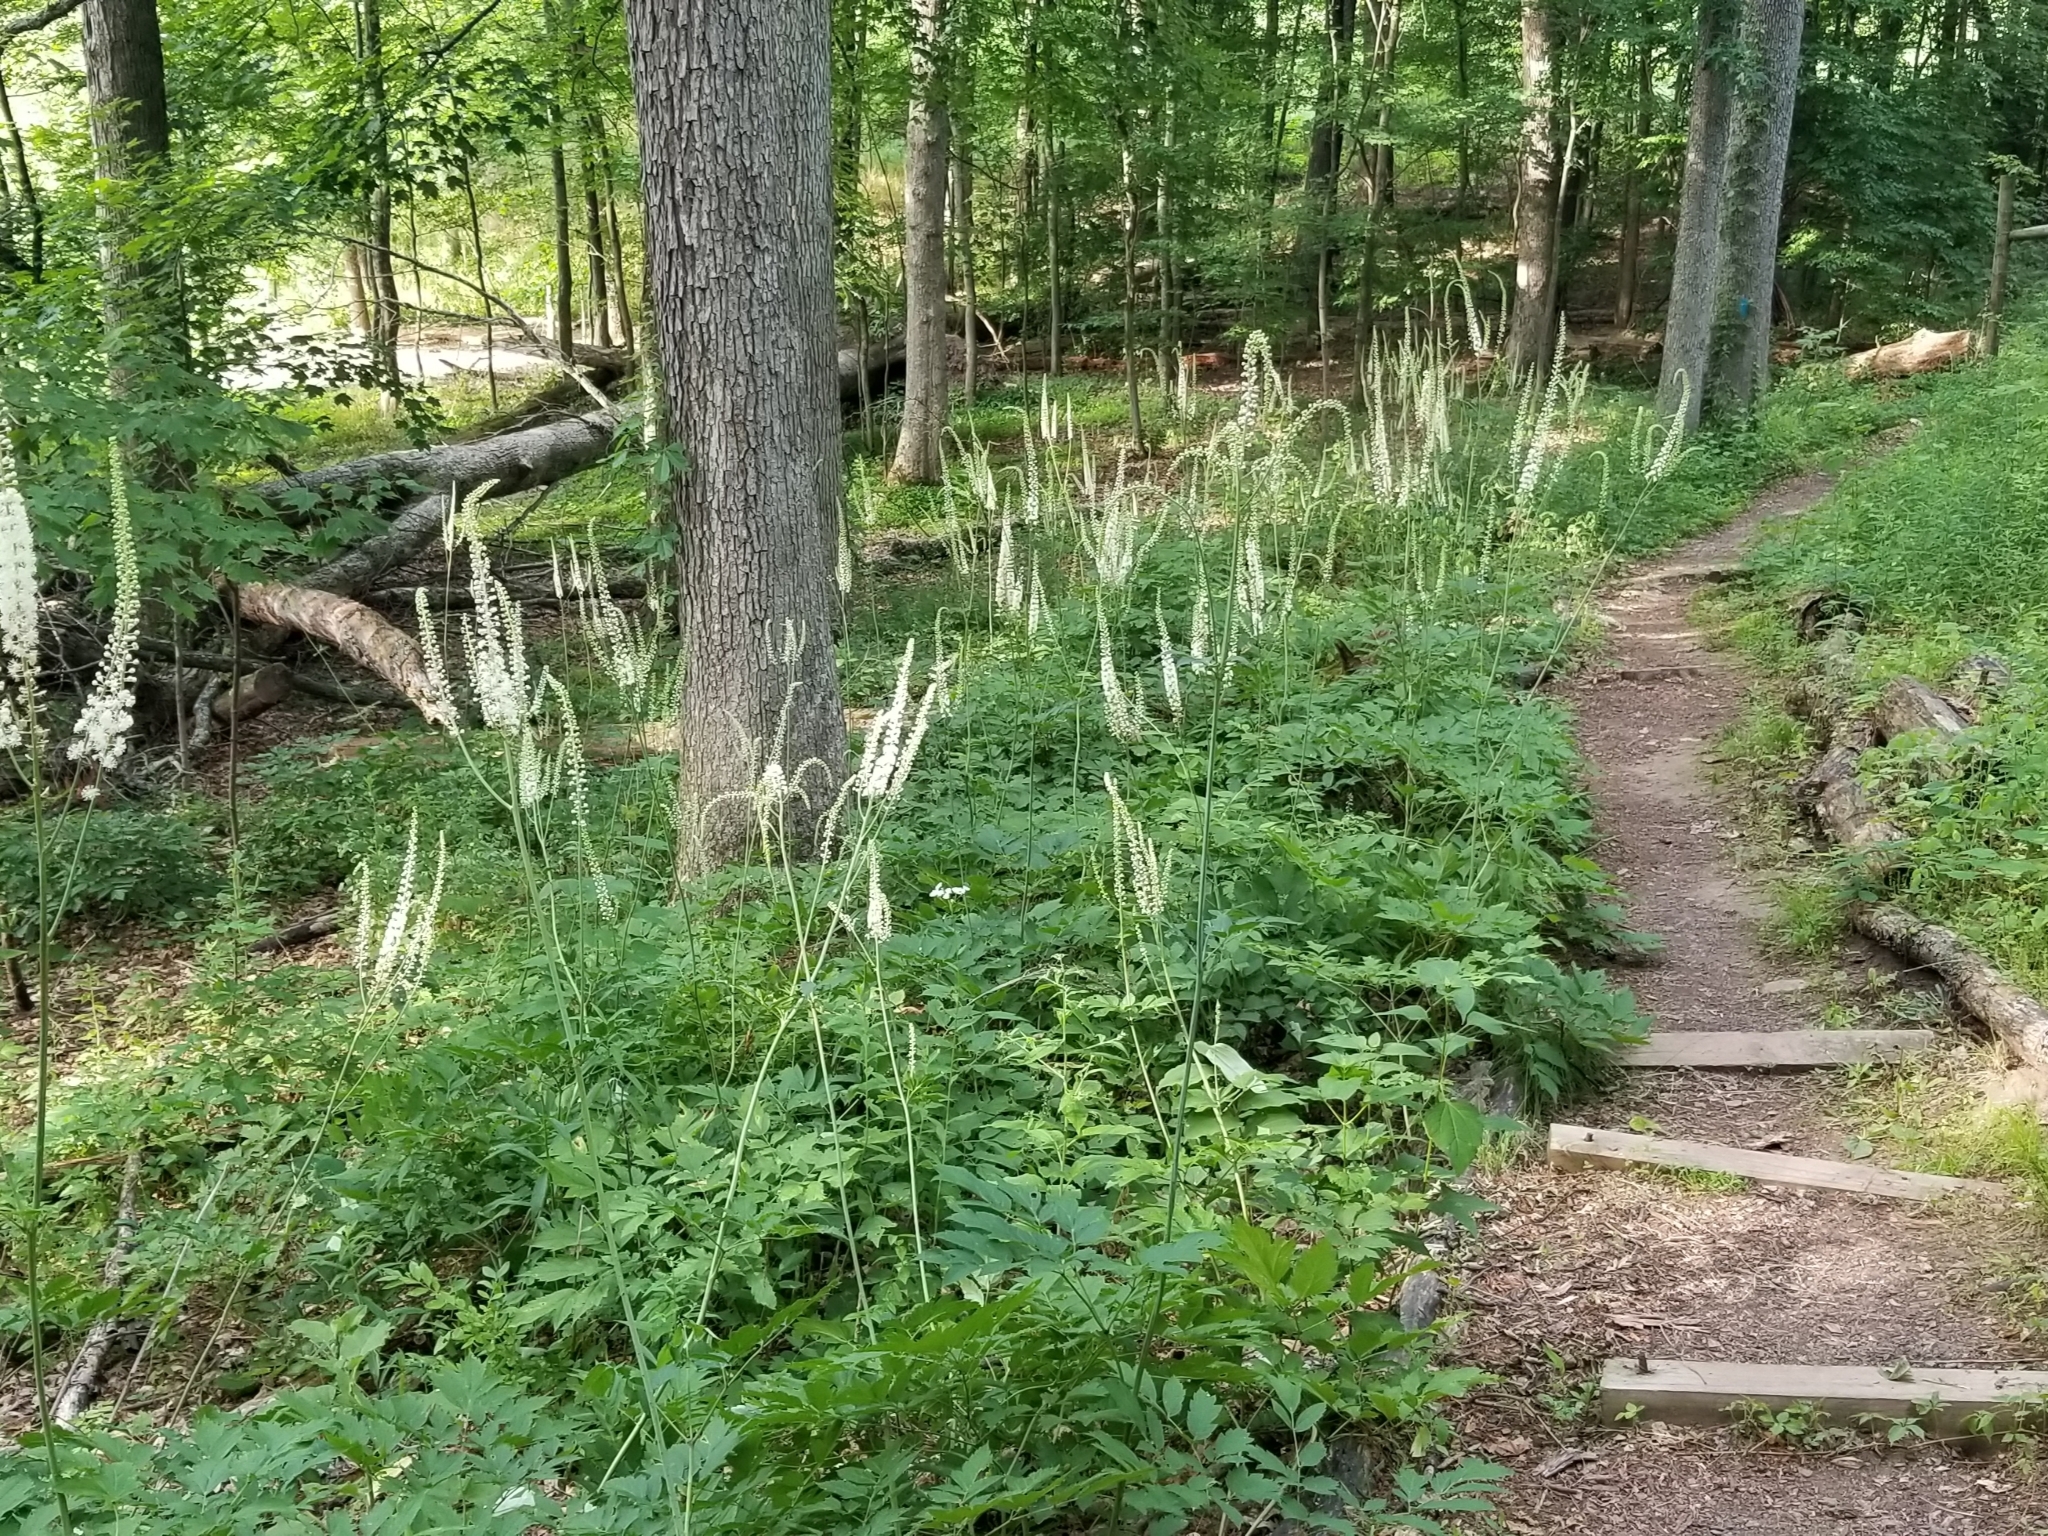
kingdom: Plantae
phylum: Tracheophyta
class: Magnoliopsida
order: Ranunculales
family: Ranunculaceae
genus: Actaea
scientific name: Actaea racemosa
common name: Black cohosh
